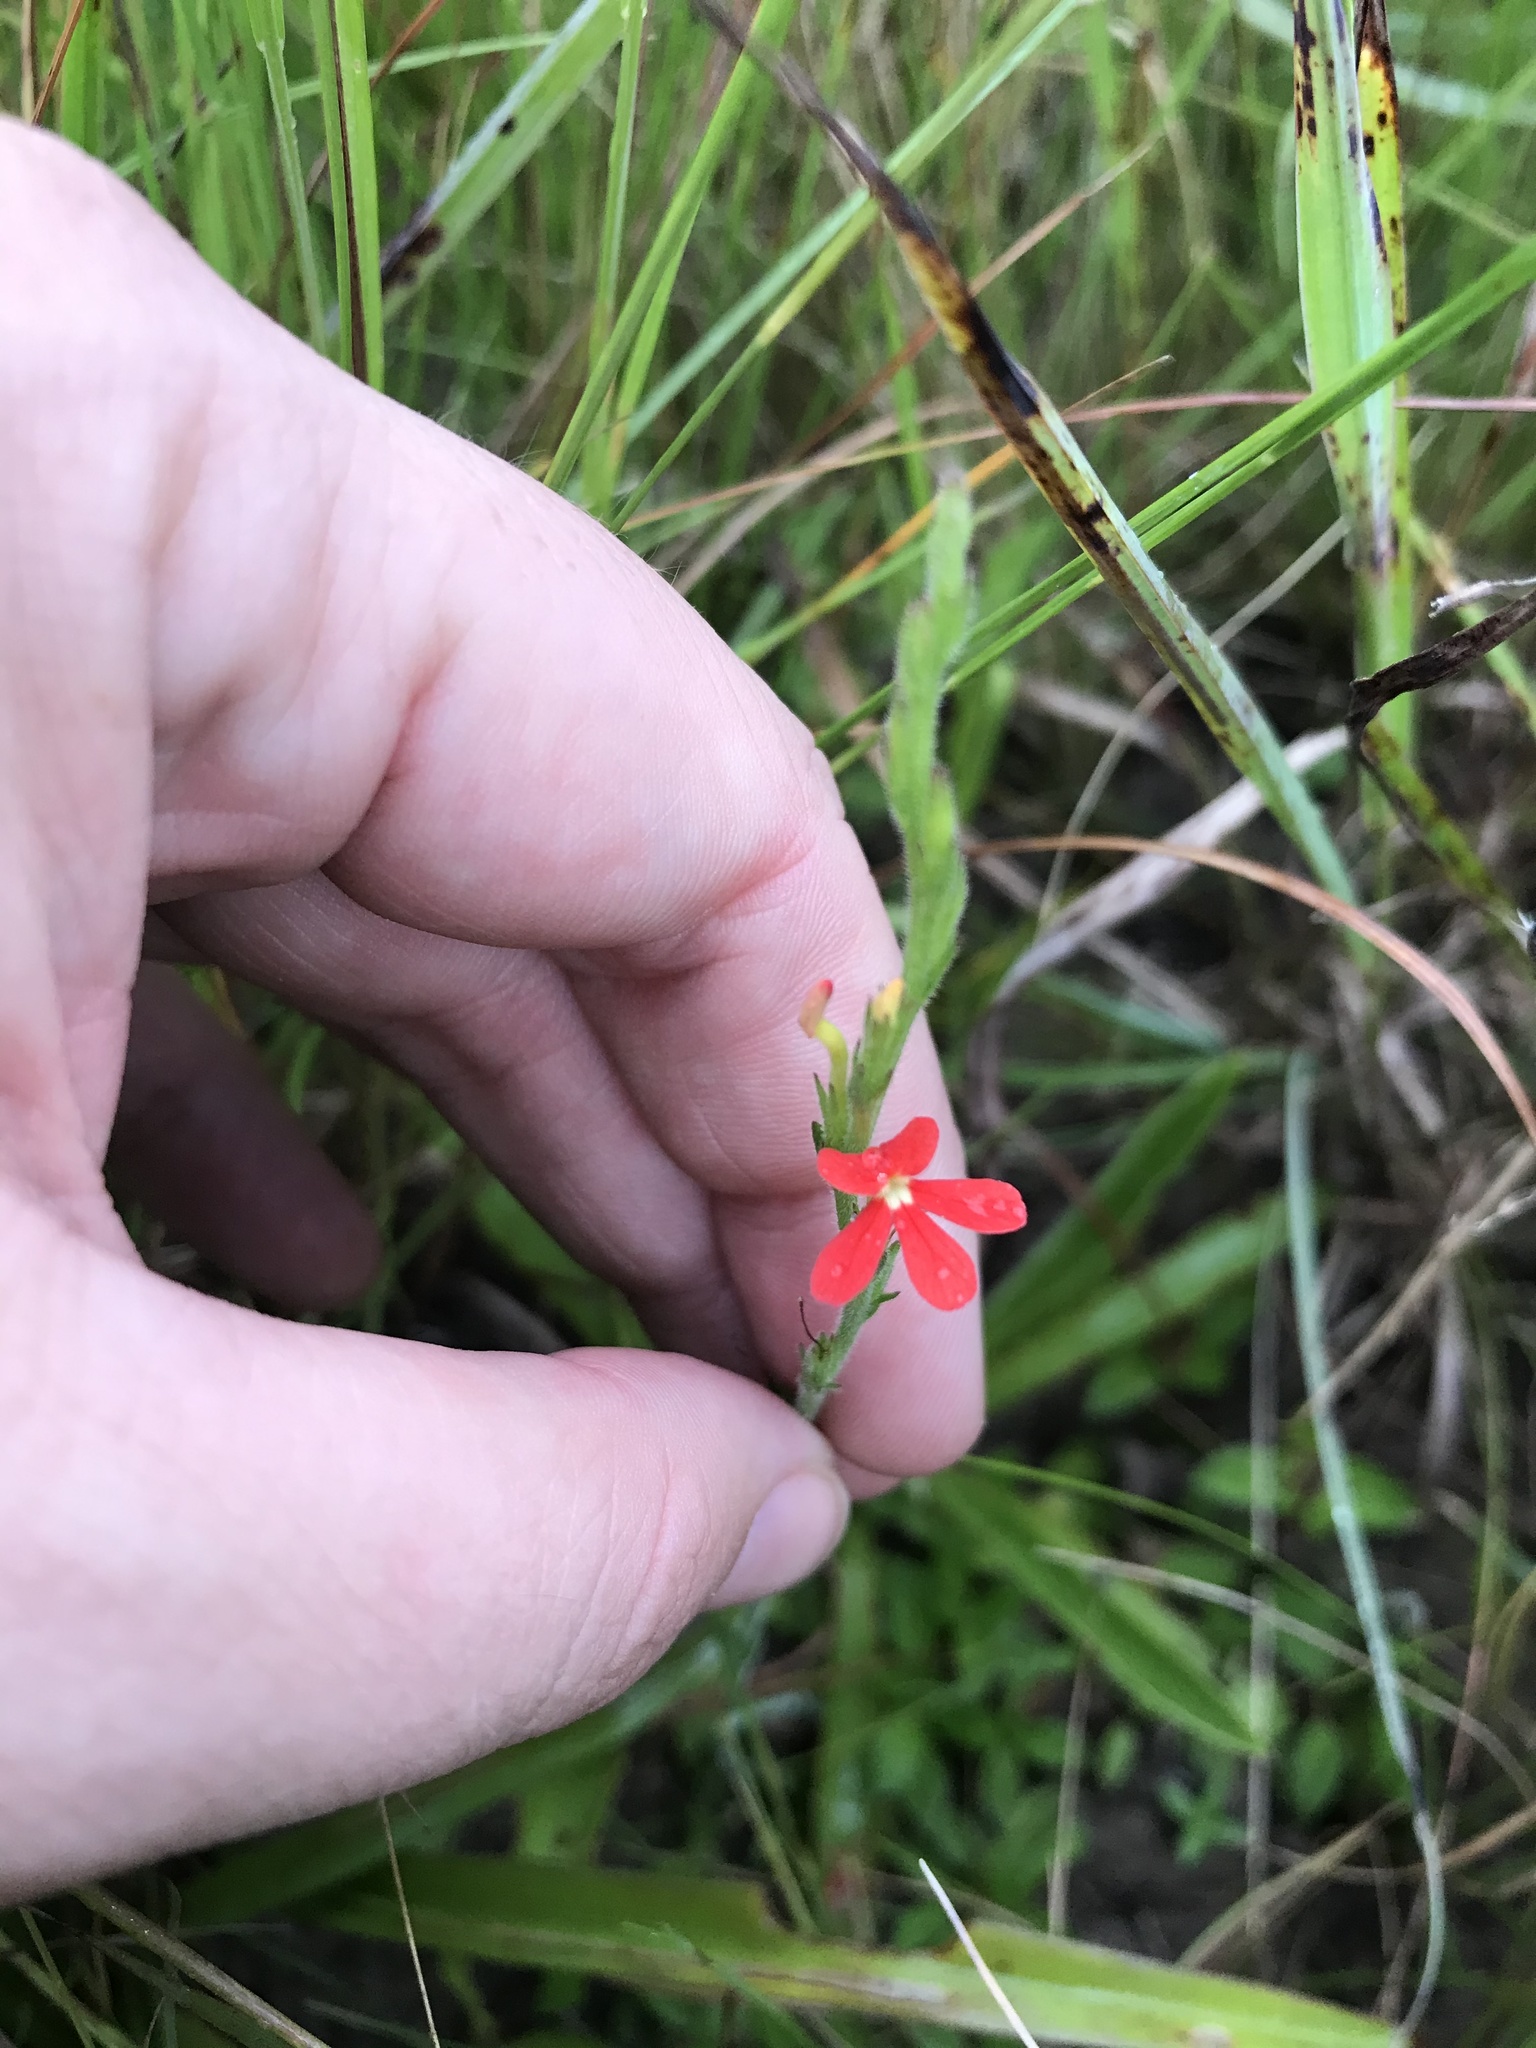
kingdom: Plantae
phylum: Tracheophyta
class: Magnoliopsida
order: Lamiales
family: Orobanchaceae
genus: Striga
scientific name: Striga elegans
